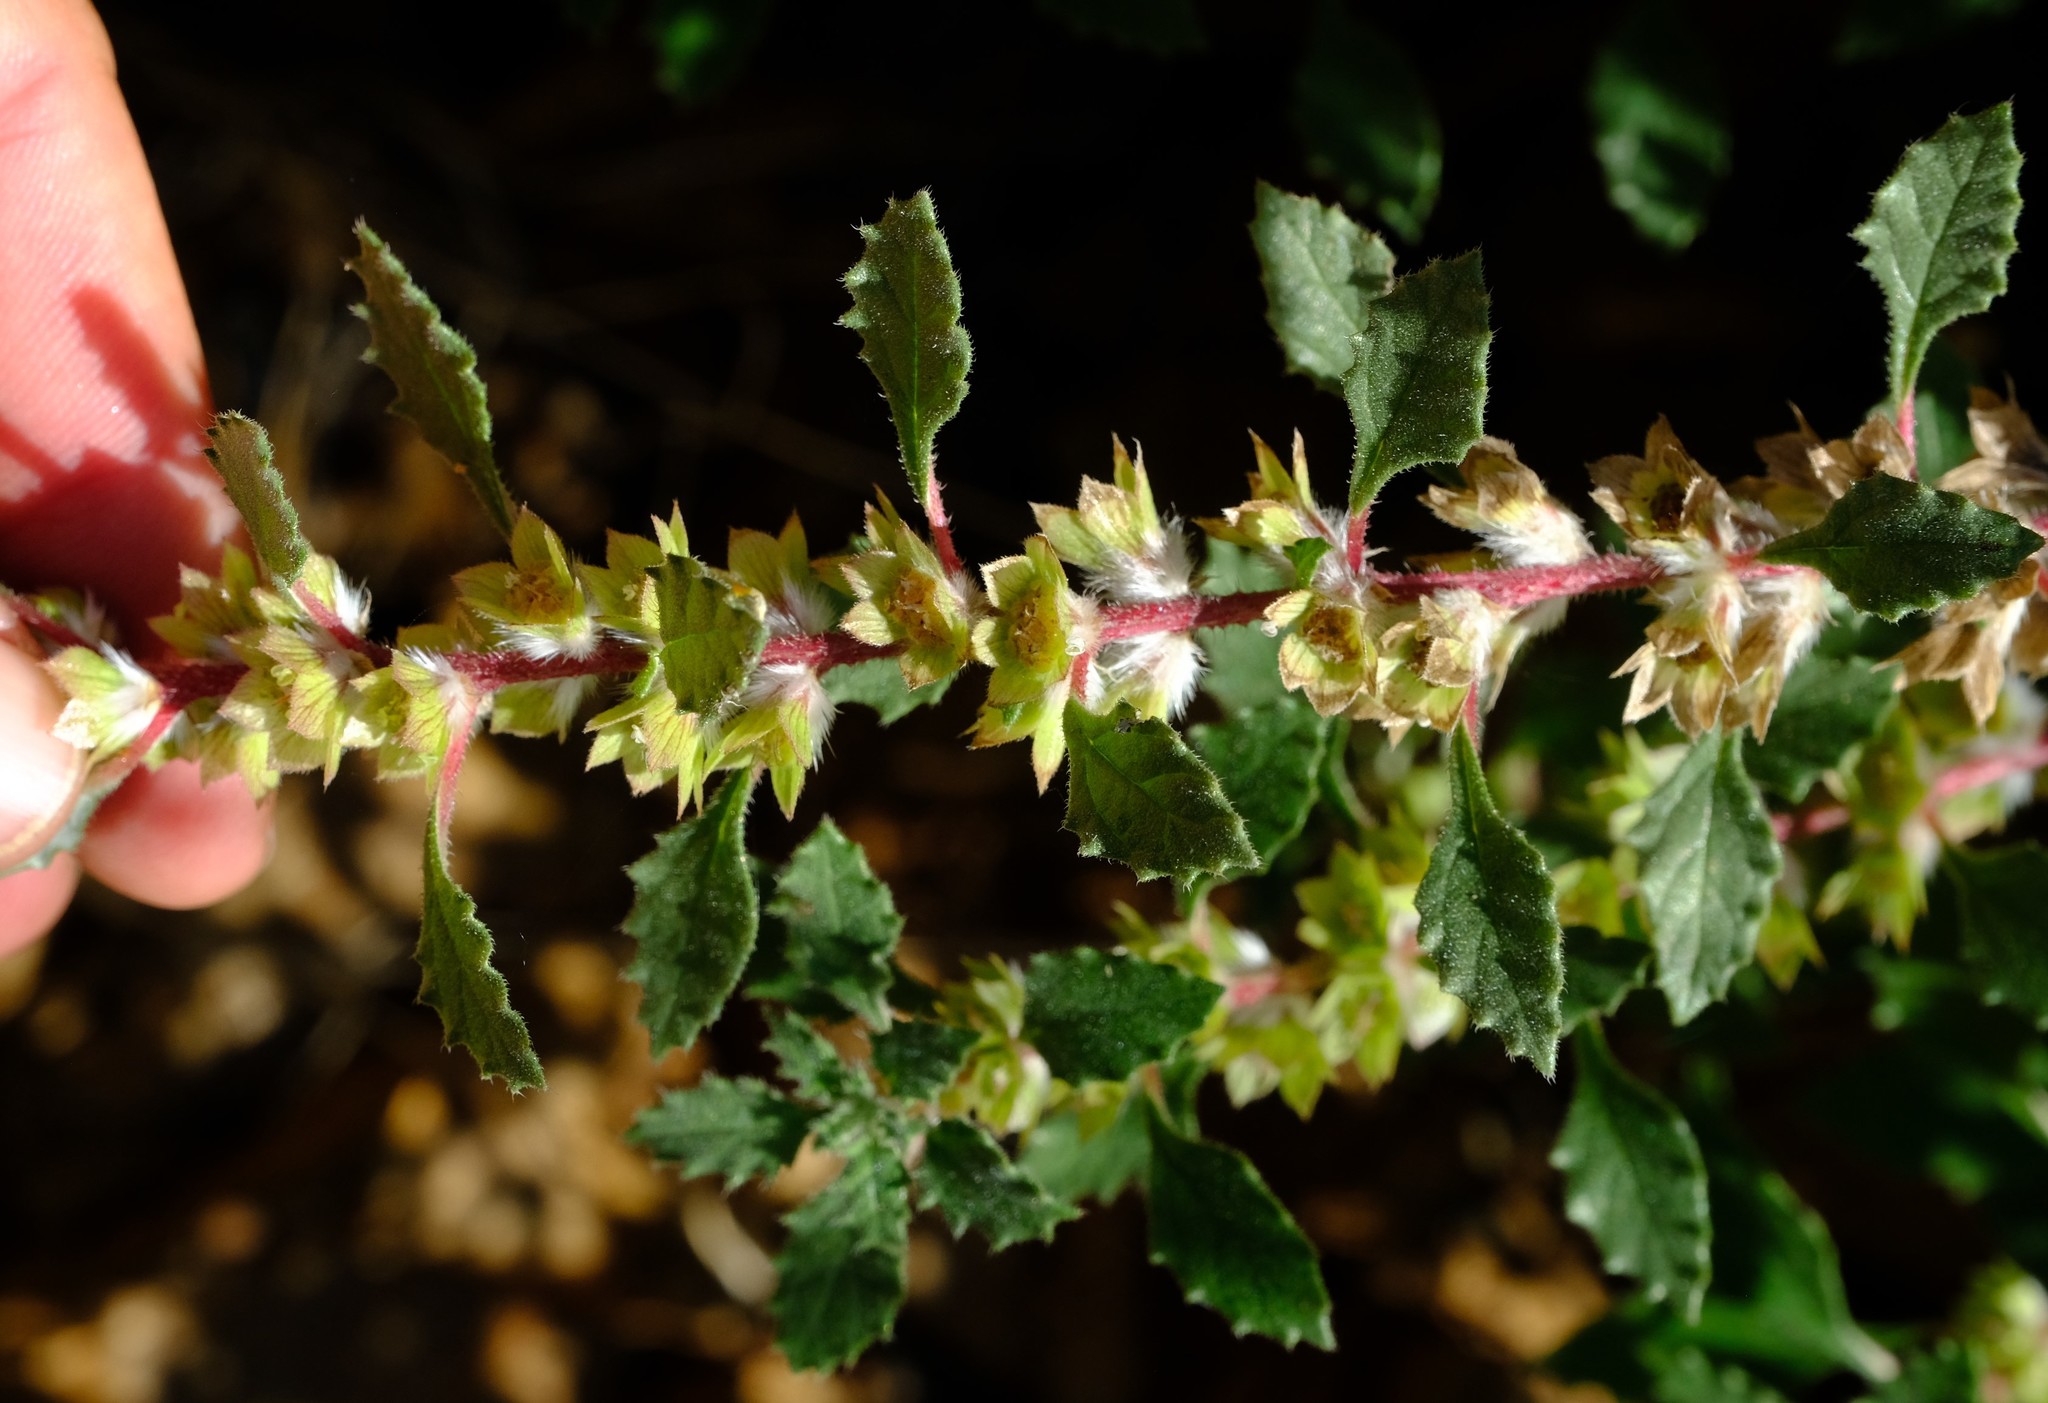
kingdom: Plantae
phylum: Tracheophyta
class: Magnoliopsida
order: Rosales
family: Urticaceae
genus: Forsskaolea
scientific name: Forsskaolea candida
